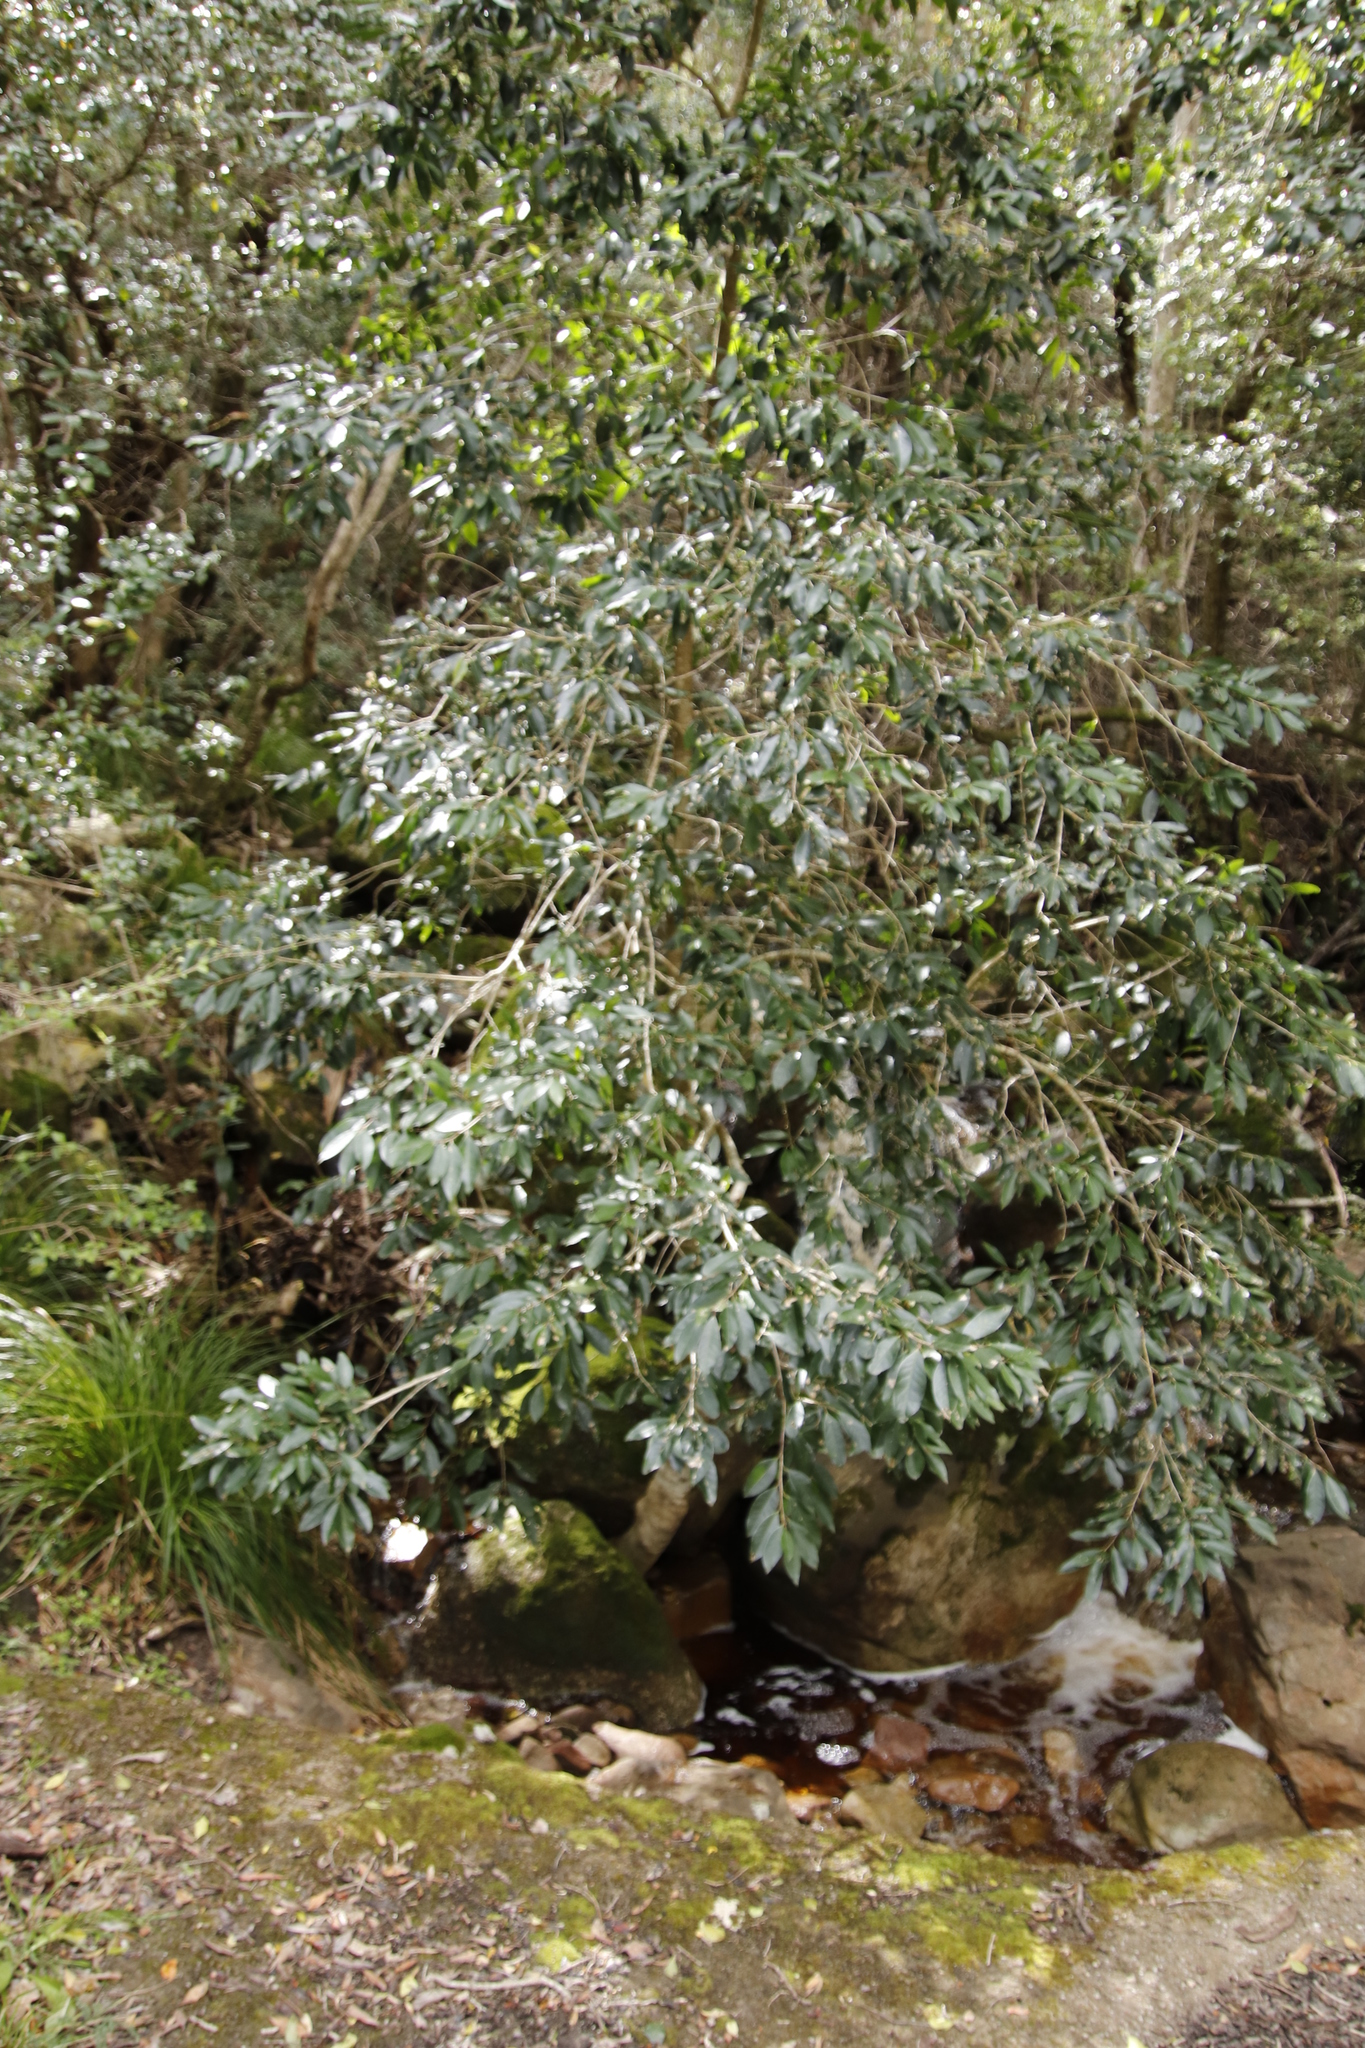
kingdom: Plantae
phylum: Tracheophyta
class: Magnoliopsida
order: Aquifoliales
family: Aquifoliaceae
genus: Ilex
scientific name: Ilex mitis
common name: African holly
